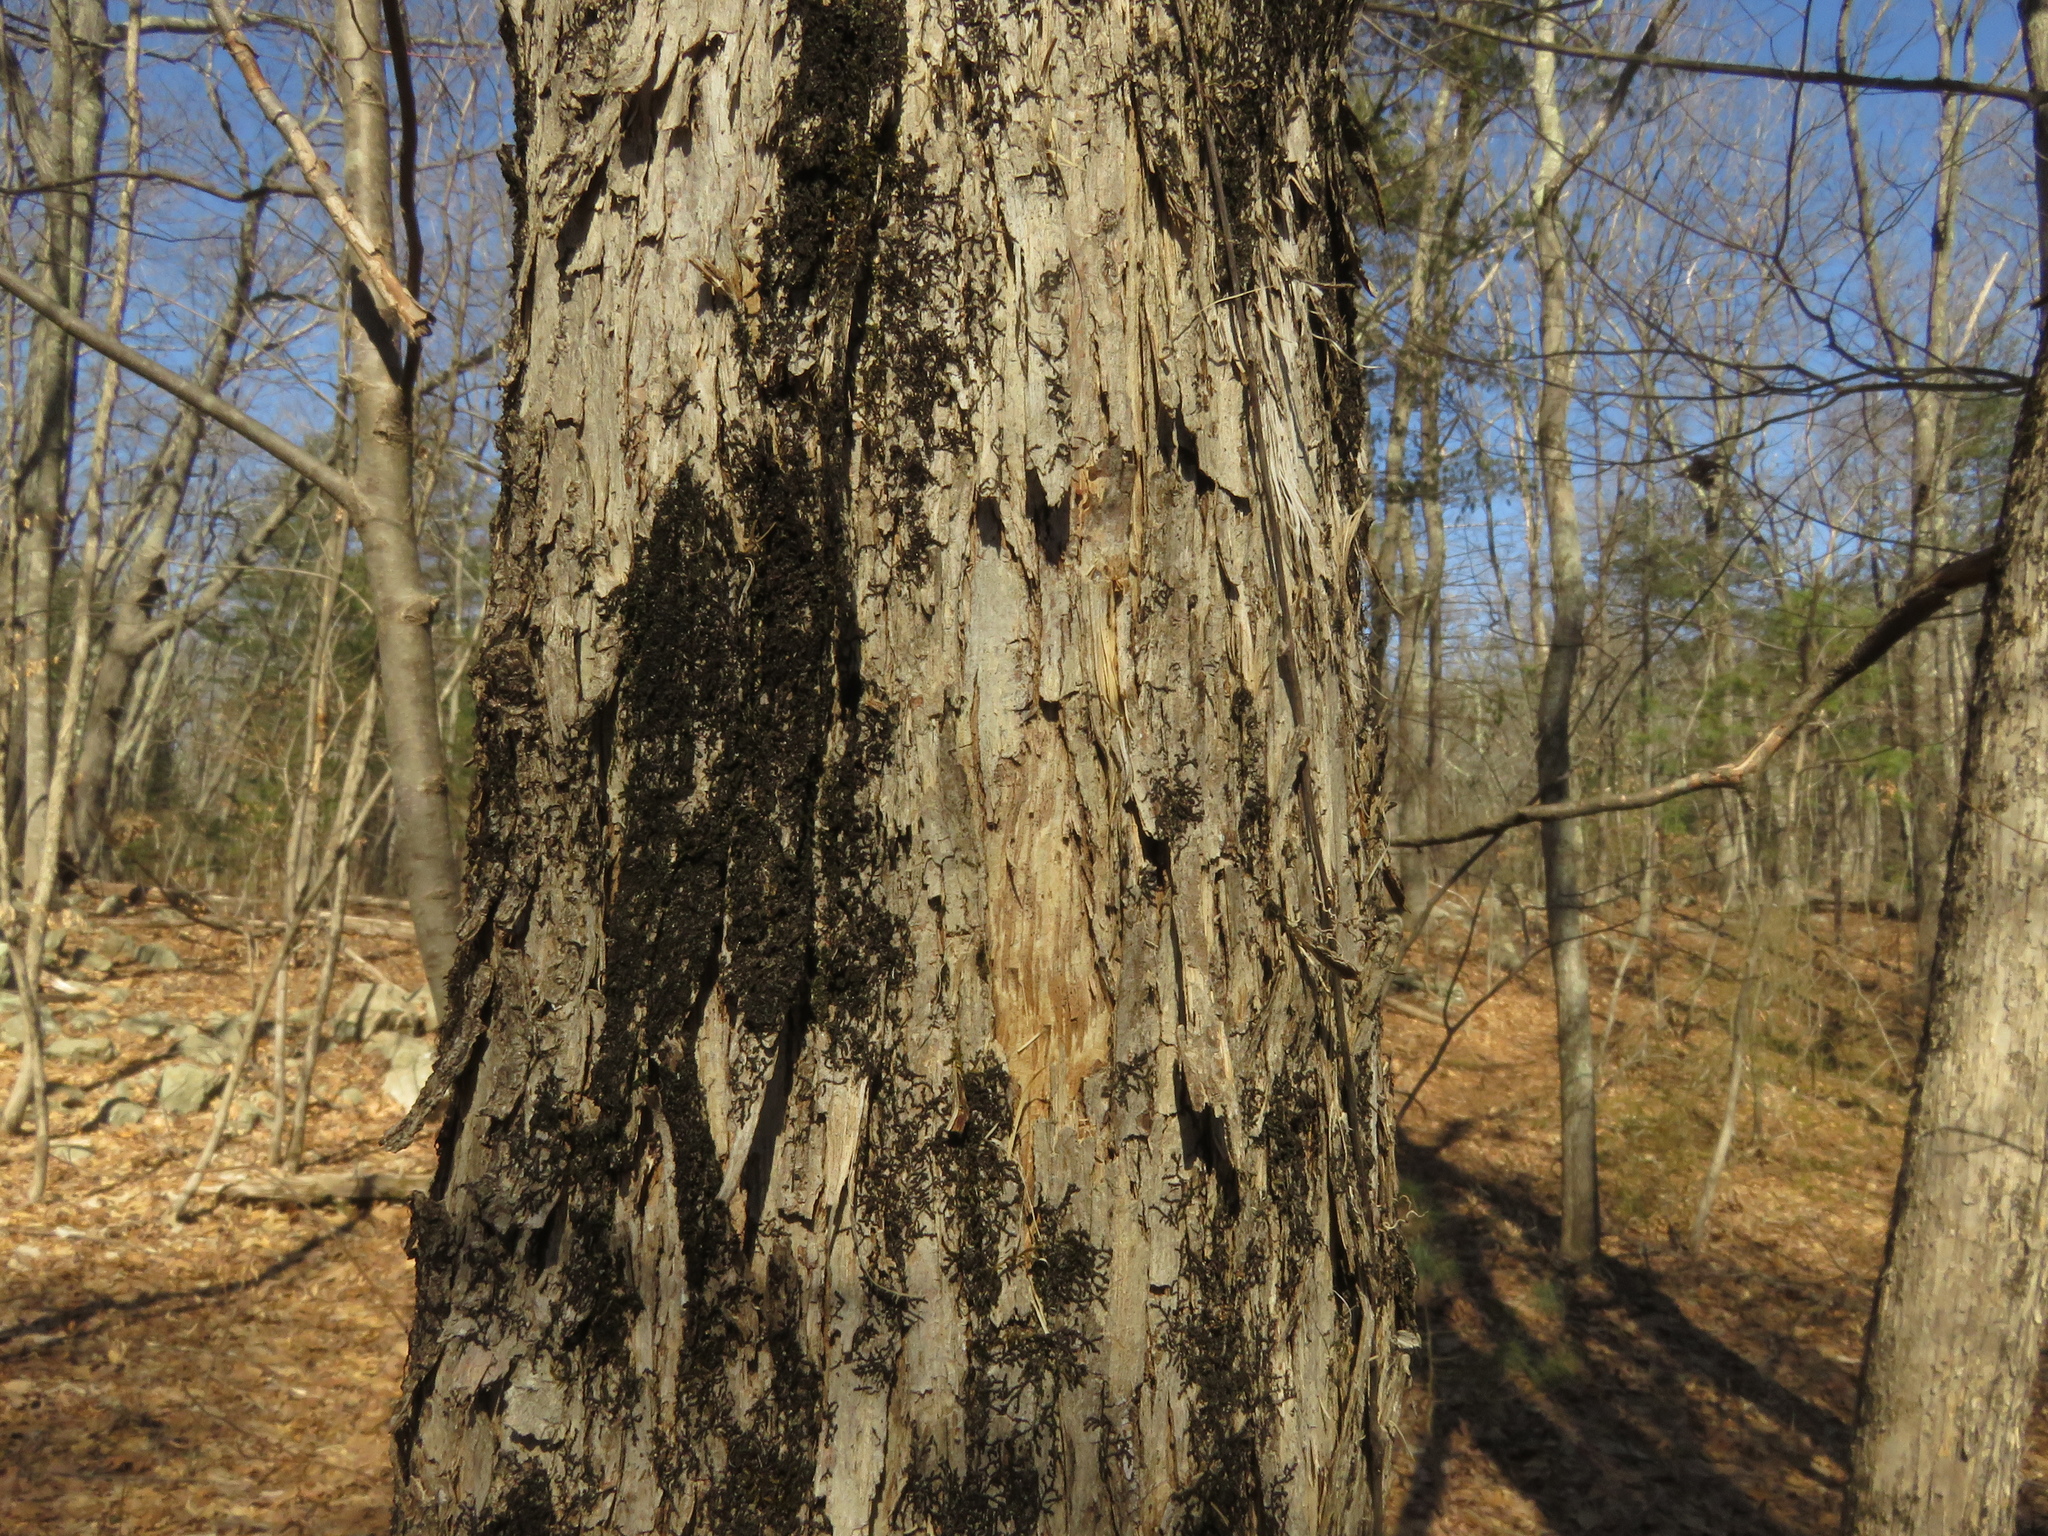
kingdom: Plantae
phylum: Tracheophyta
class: Magnoliopsida
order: Fagales
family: Betulaceae
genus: Ostrya
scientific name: Ostrya virginiana
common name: Ironwood
